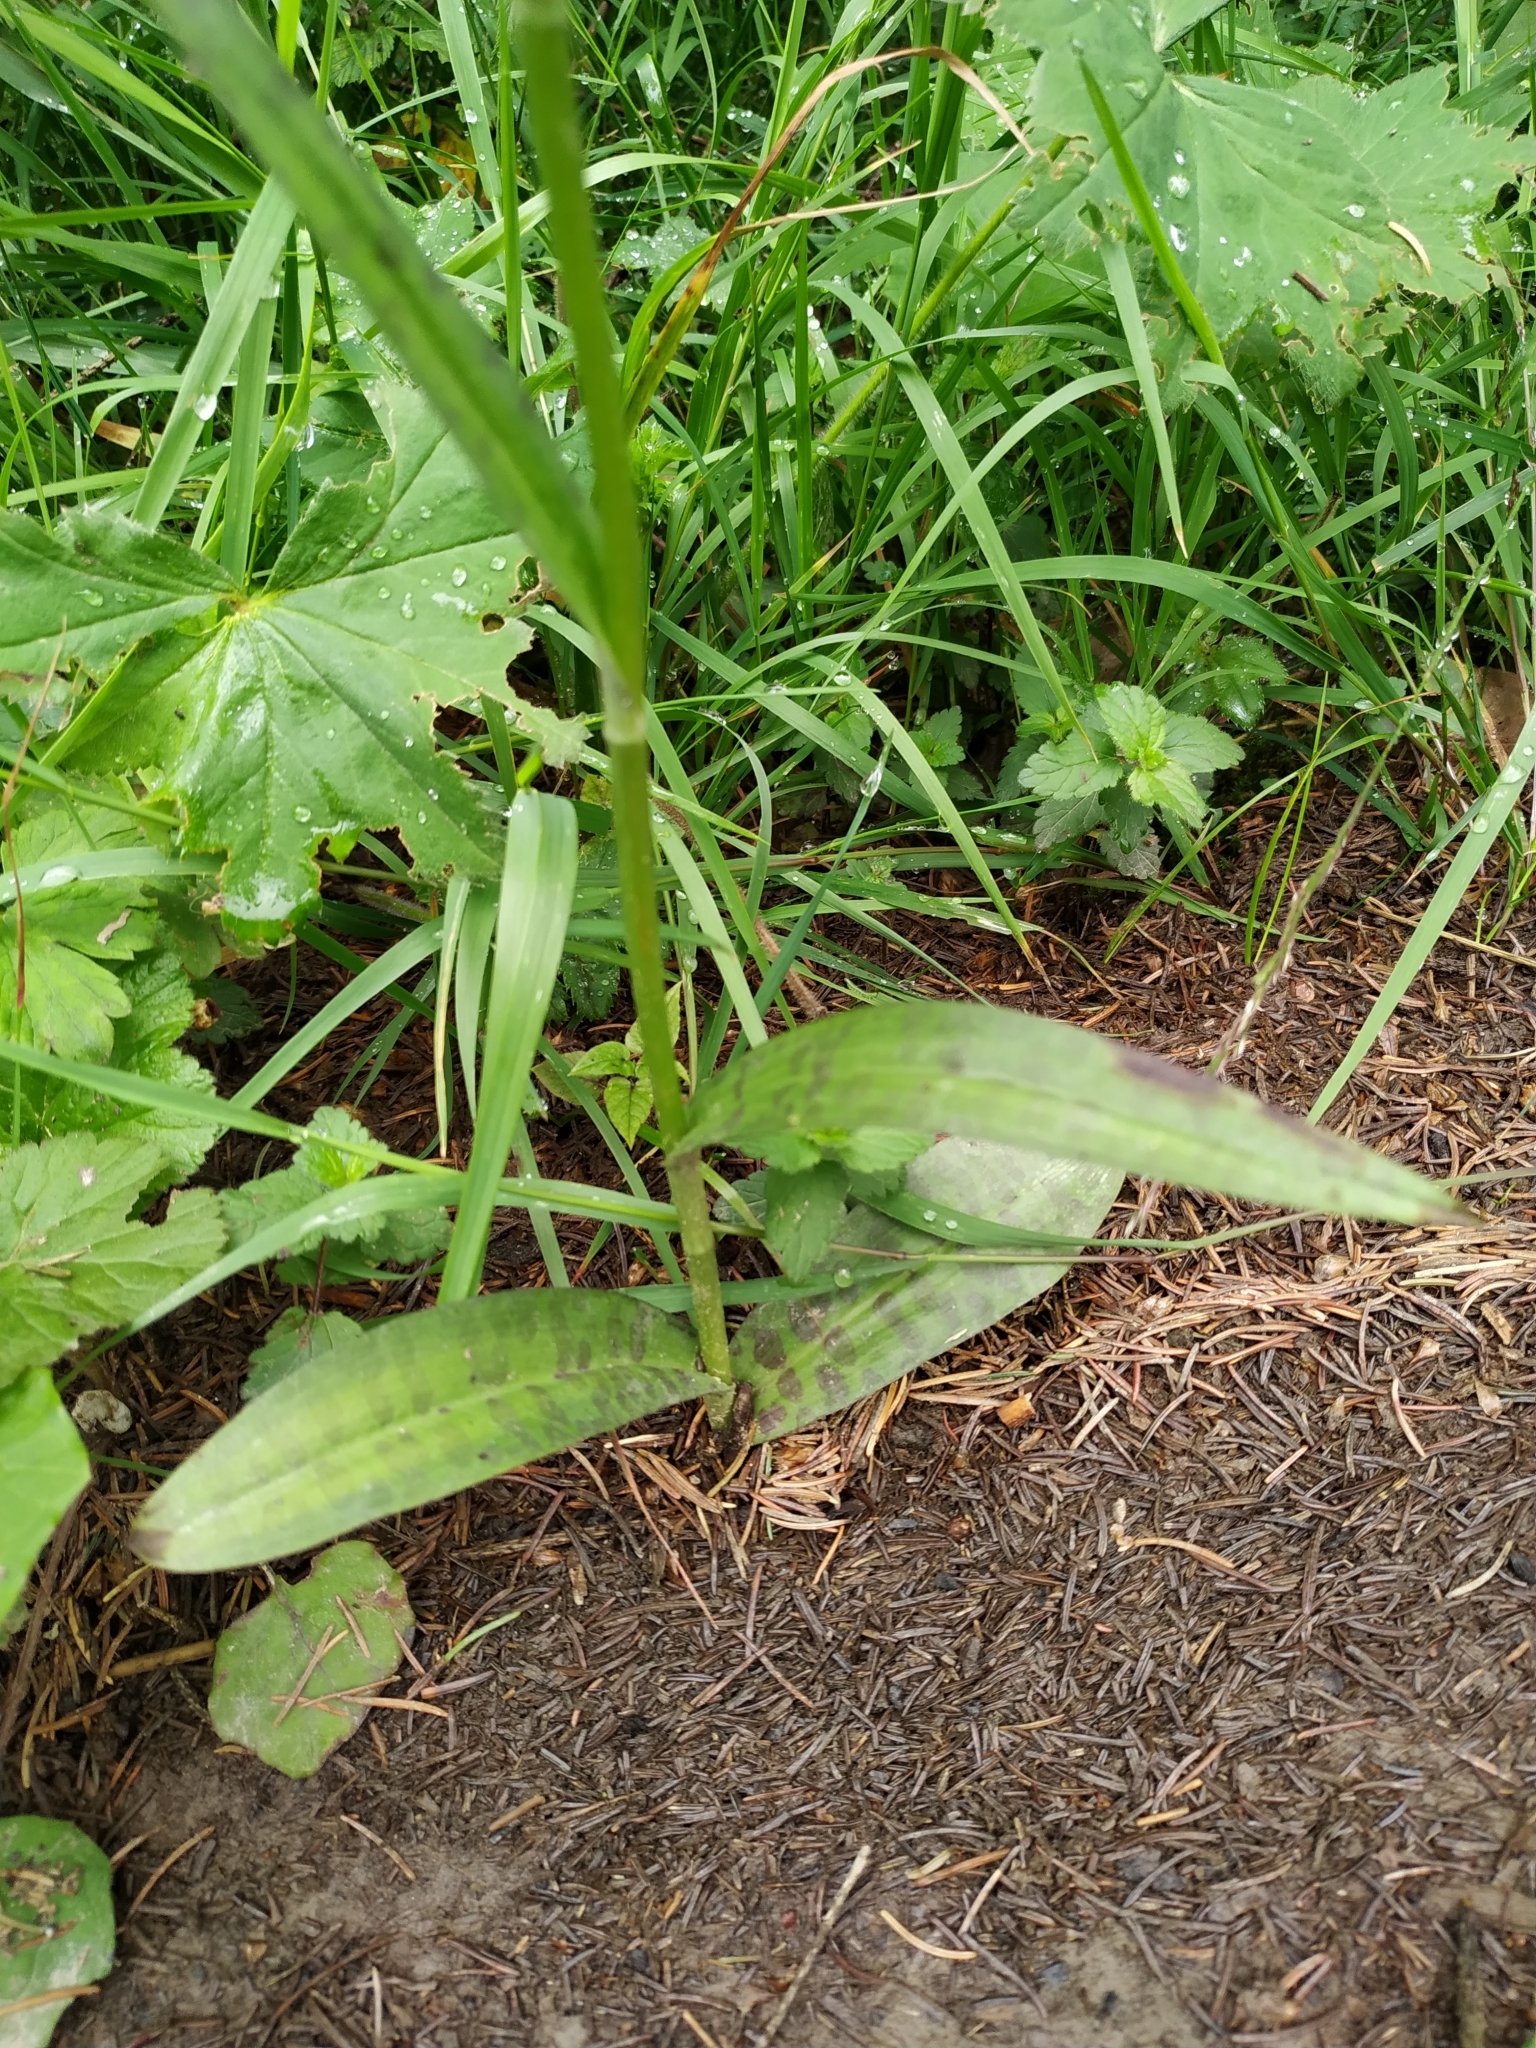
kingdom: Plantae
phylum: Tracheophyta
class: Liliopsida
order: Asparagales
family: Orchidaceae
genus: Dactylorhiza
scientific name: Dactylorhiza maculata
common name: Heath spotted-orchid
